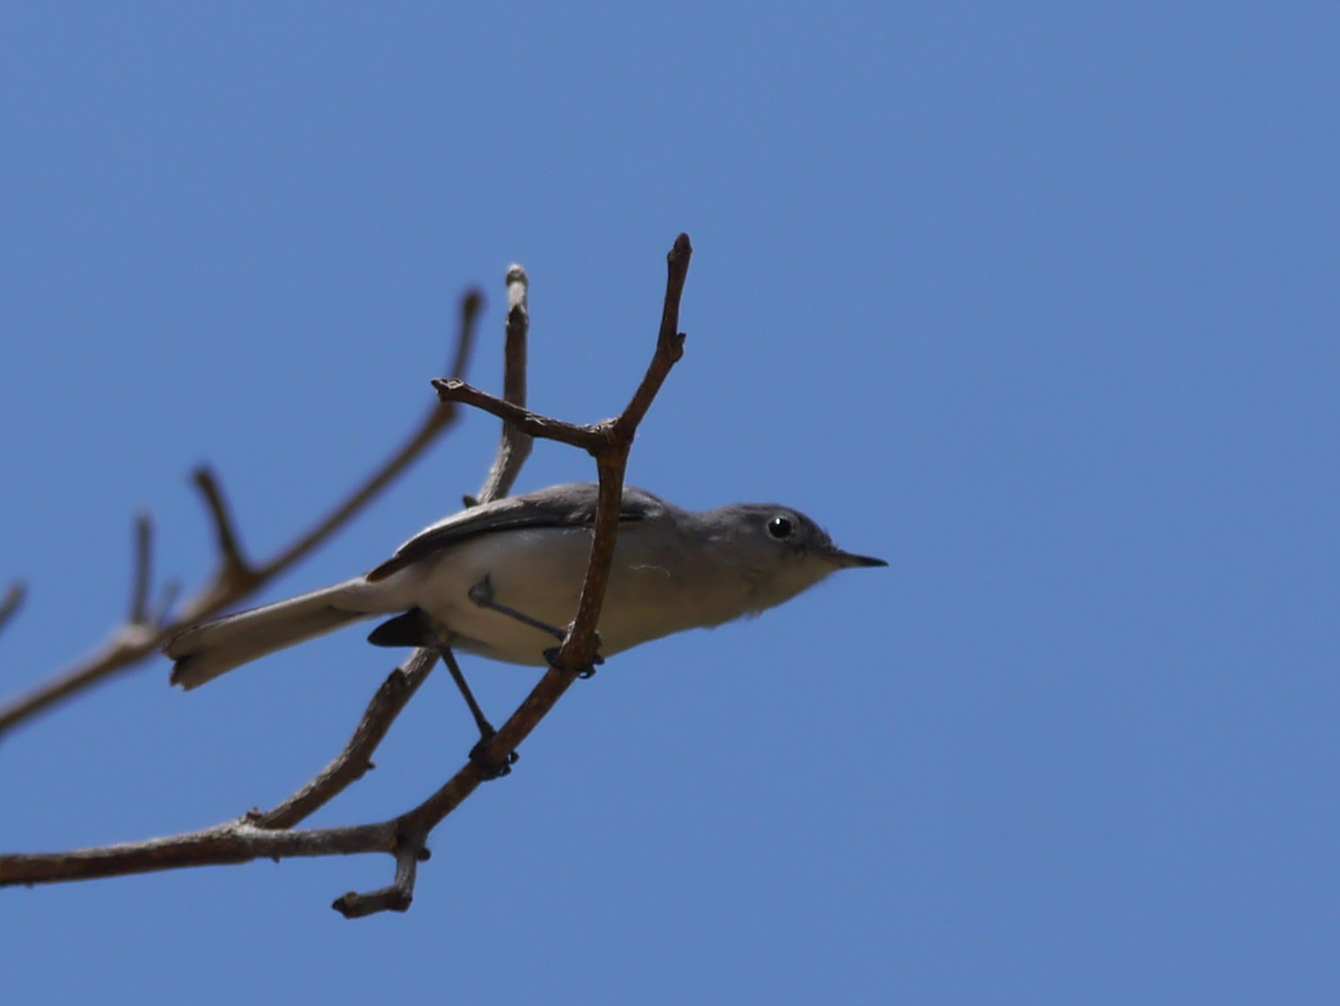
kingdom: Animalia
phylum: Chordata
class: Aves
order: Passeriformes
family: Polioptilidae
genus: Polioptila
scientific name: Polioptila caerulea
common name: Blue-gray gnatcatcher
